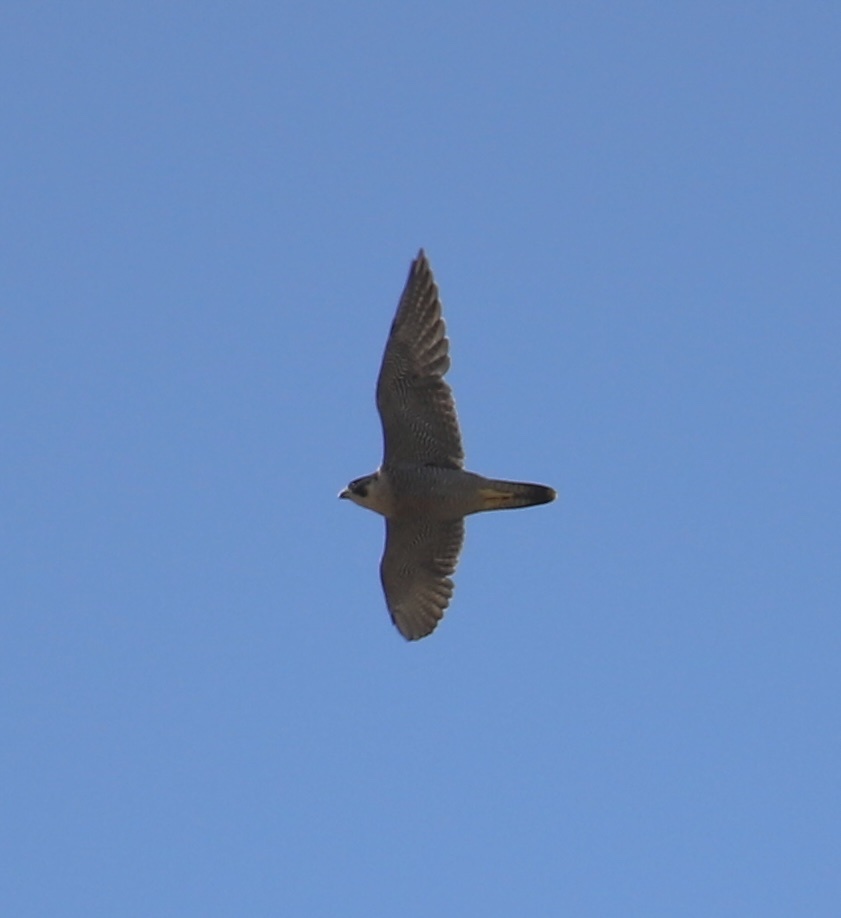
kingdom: Animalia
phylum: Chordata
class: Aves
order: Falconiformes
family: Falconidae
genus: Falco
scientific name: Falco peregrinus
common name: Peregrine falcon
